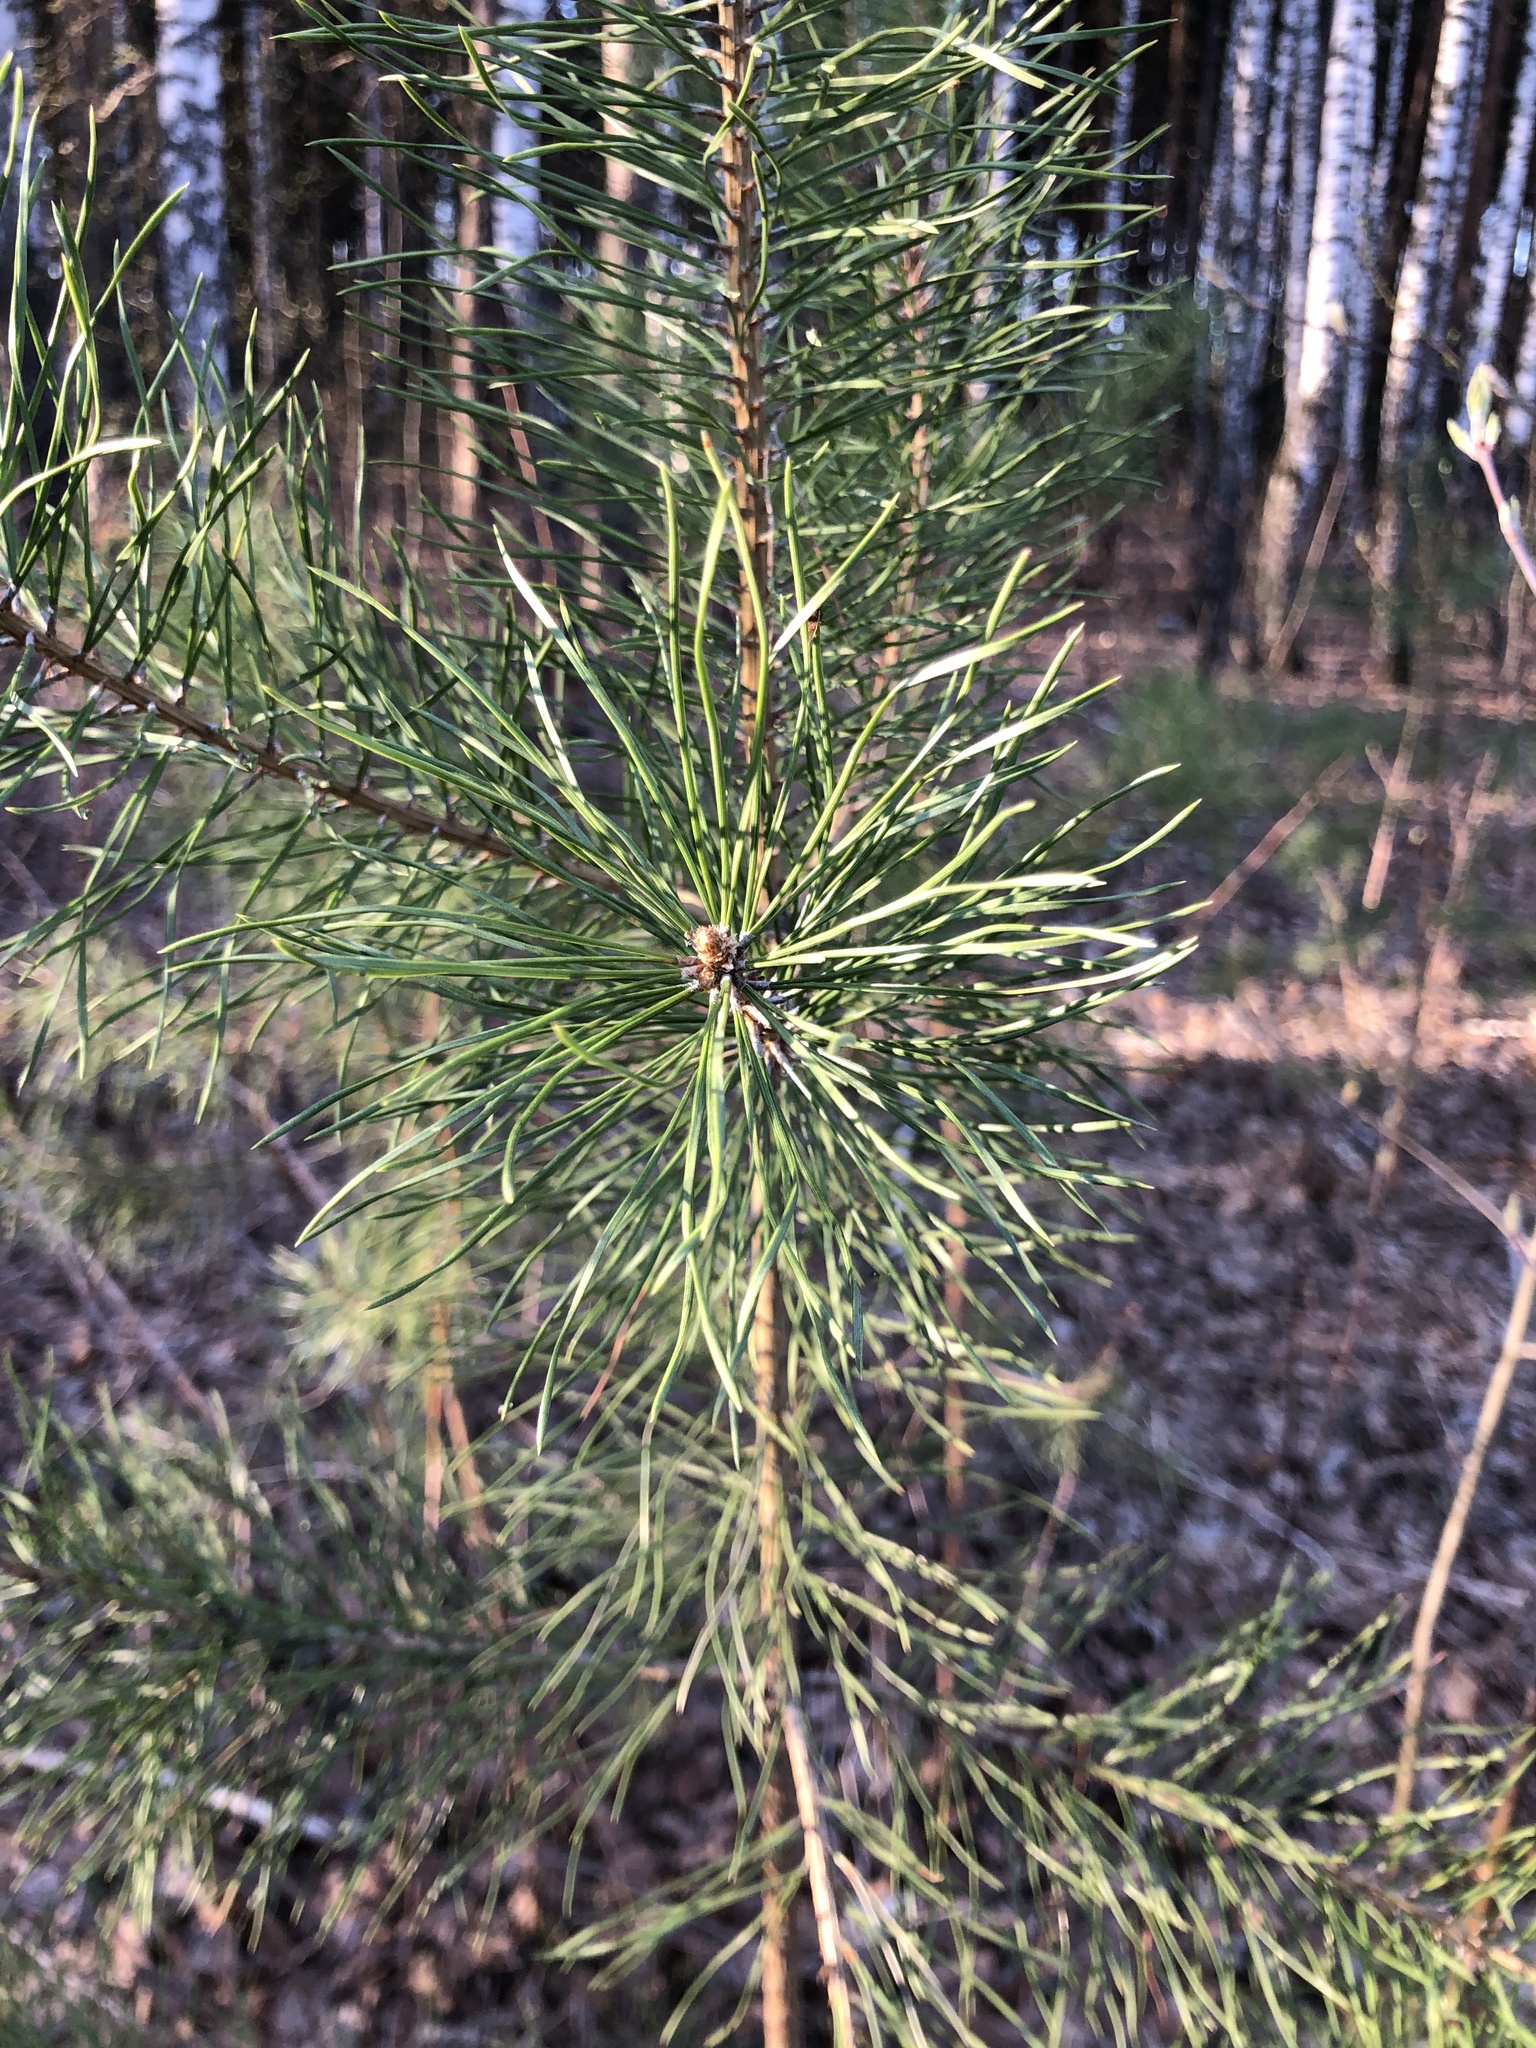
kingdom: Plantae
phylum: Tracheophyta
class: Pinopsida
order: Pinales
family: Pinaceae
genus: Pinus
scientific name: Pinus sylvestris
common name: Scots pine
